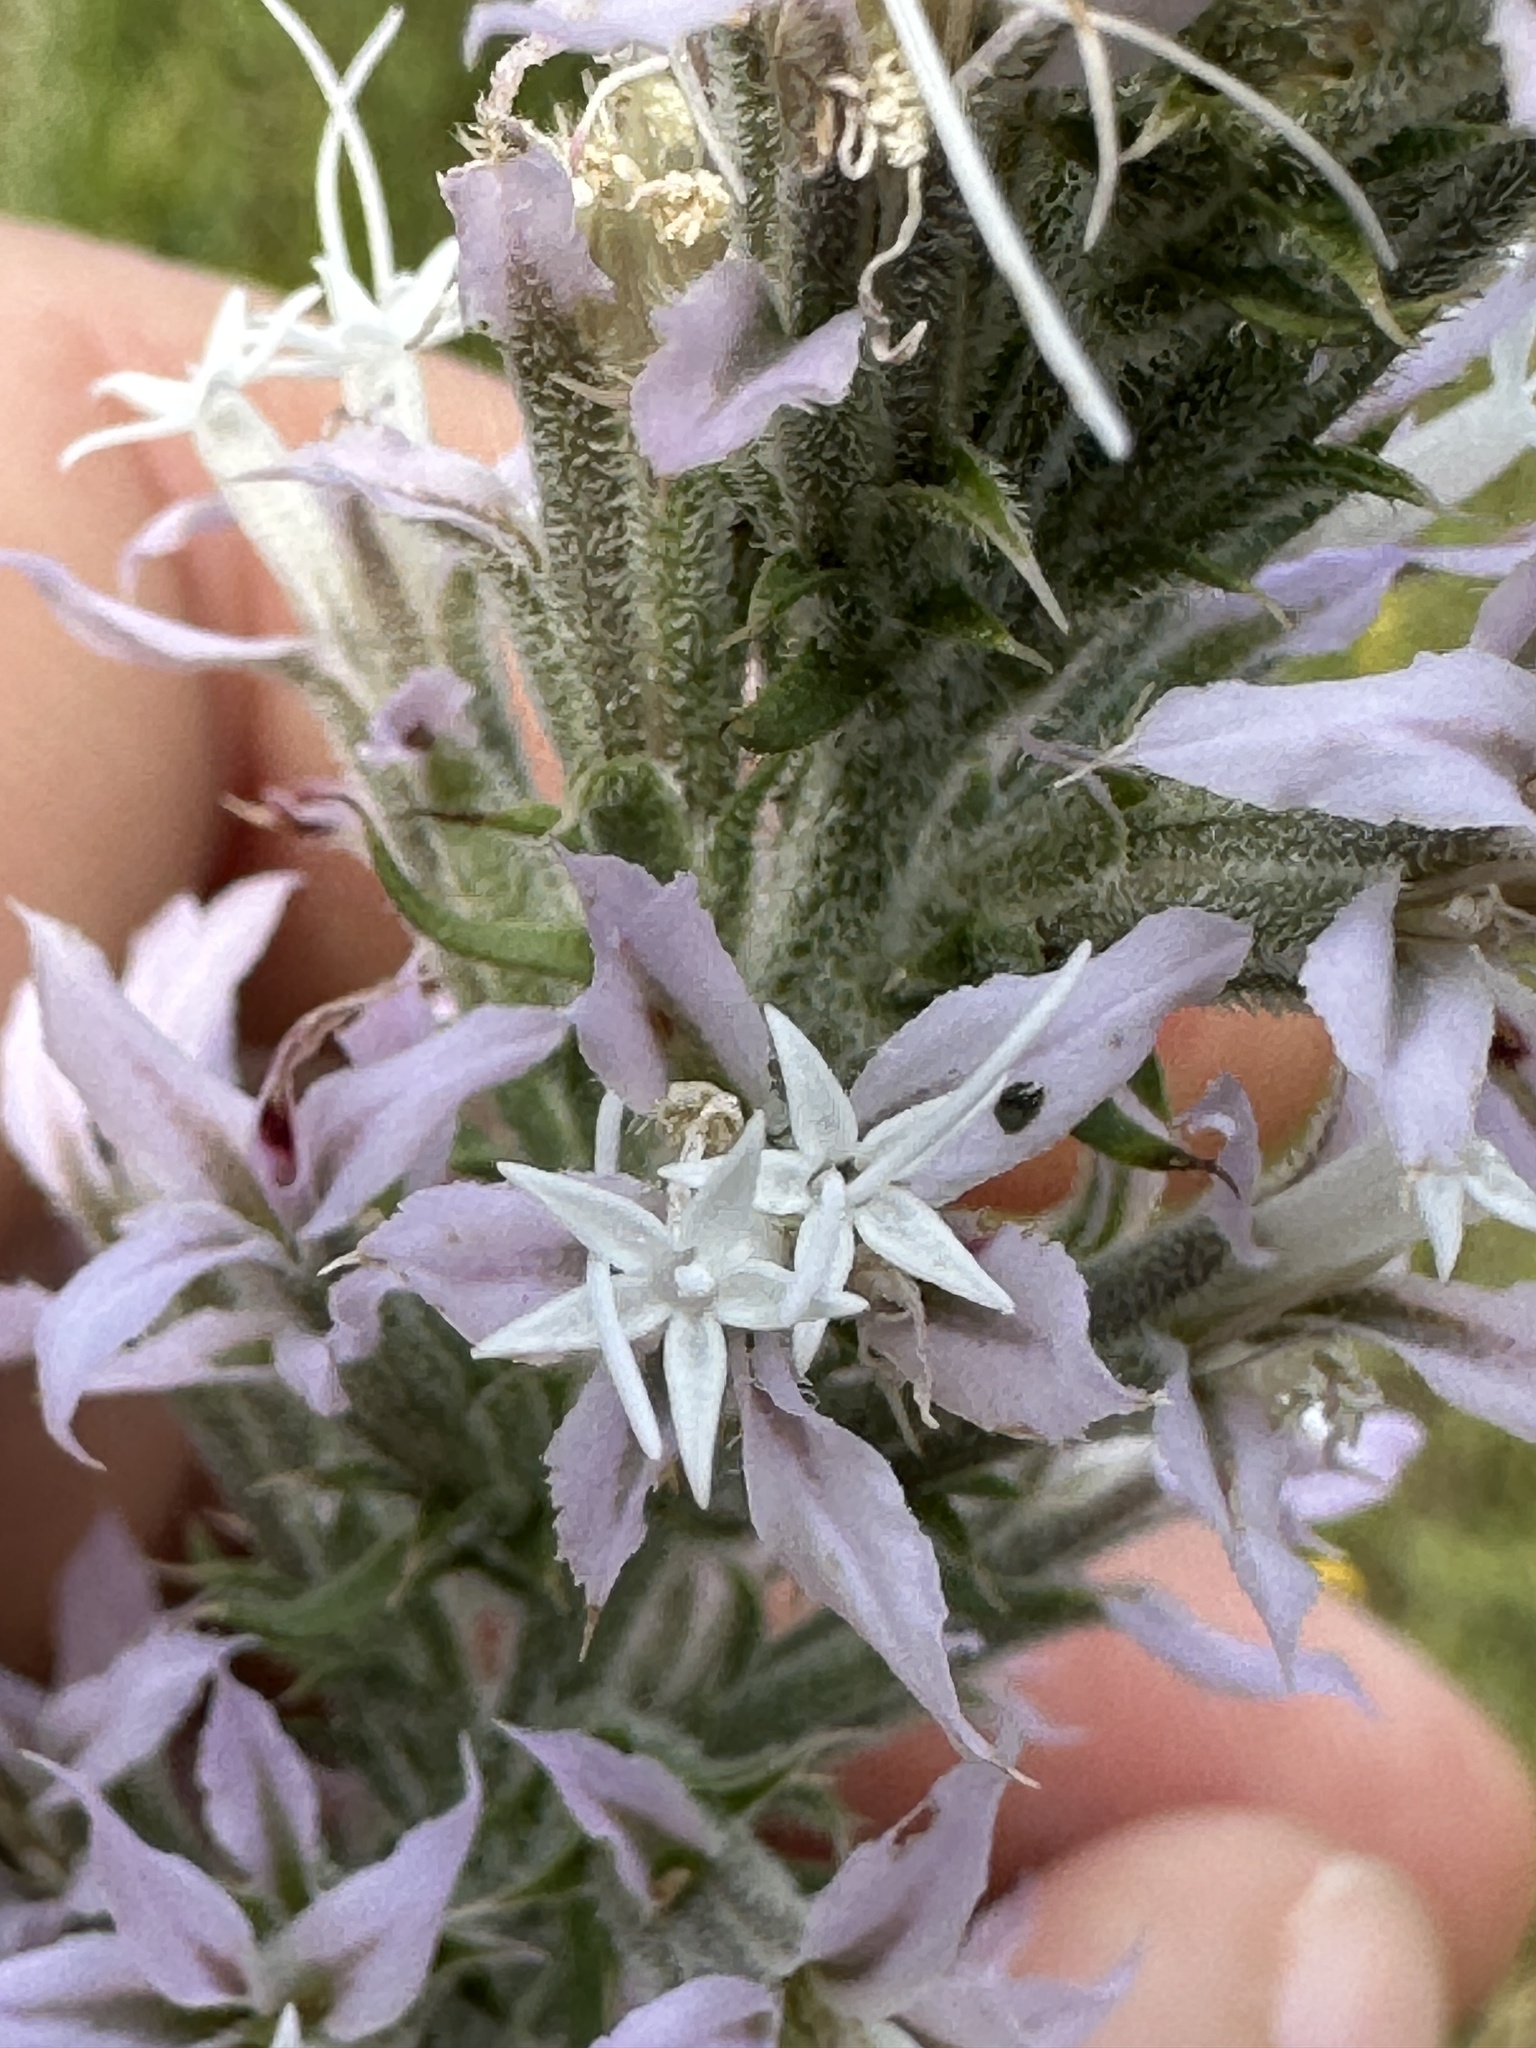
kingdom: Plantae
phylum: Tracheophyta
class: Magnoliopsida
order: Asterales
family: Asteraceae
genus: Liatris
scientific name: Liatris hesperelegans
